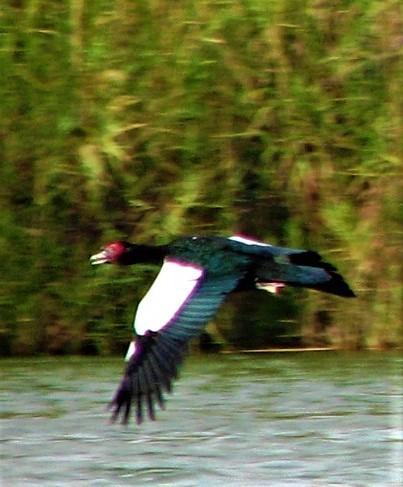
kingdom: Animalia
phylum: Chordata
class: Aves
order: Anseriformes
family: Anatidae
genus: Cairina
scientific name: Cairina moschata
